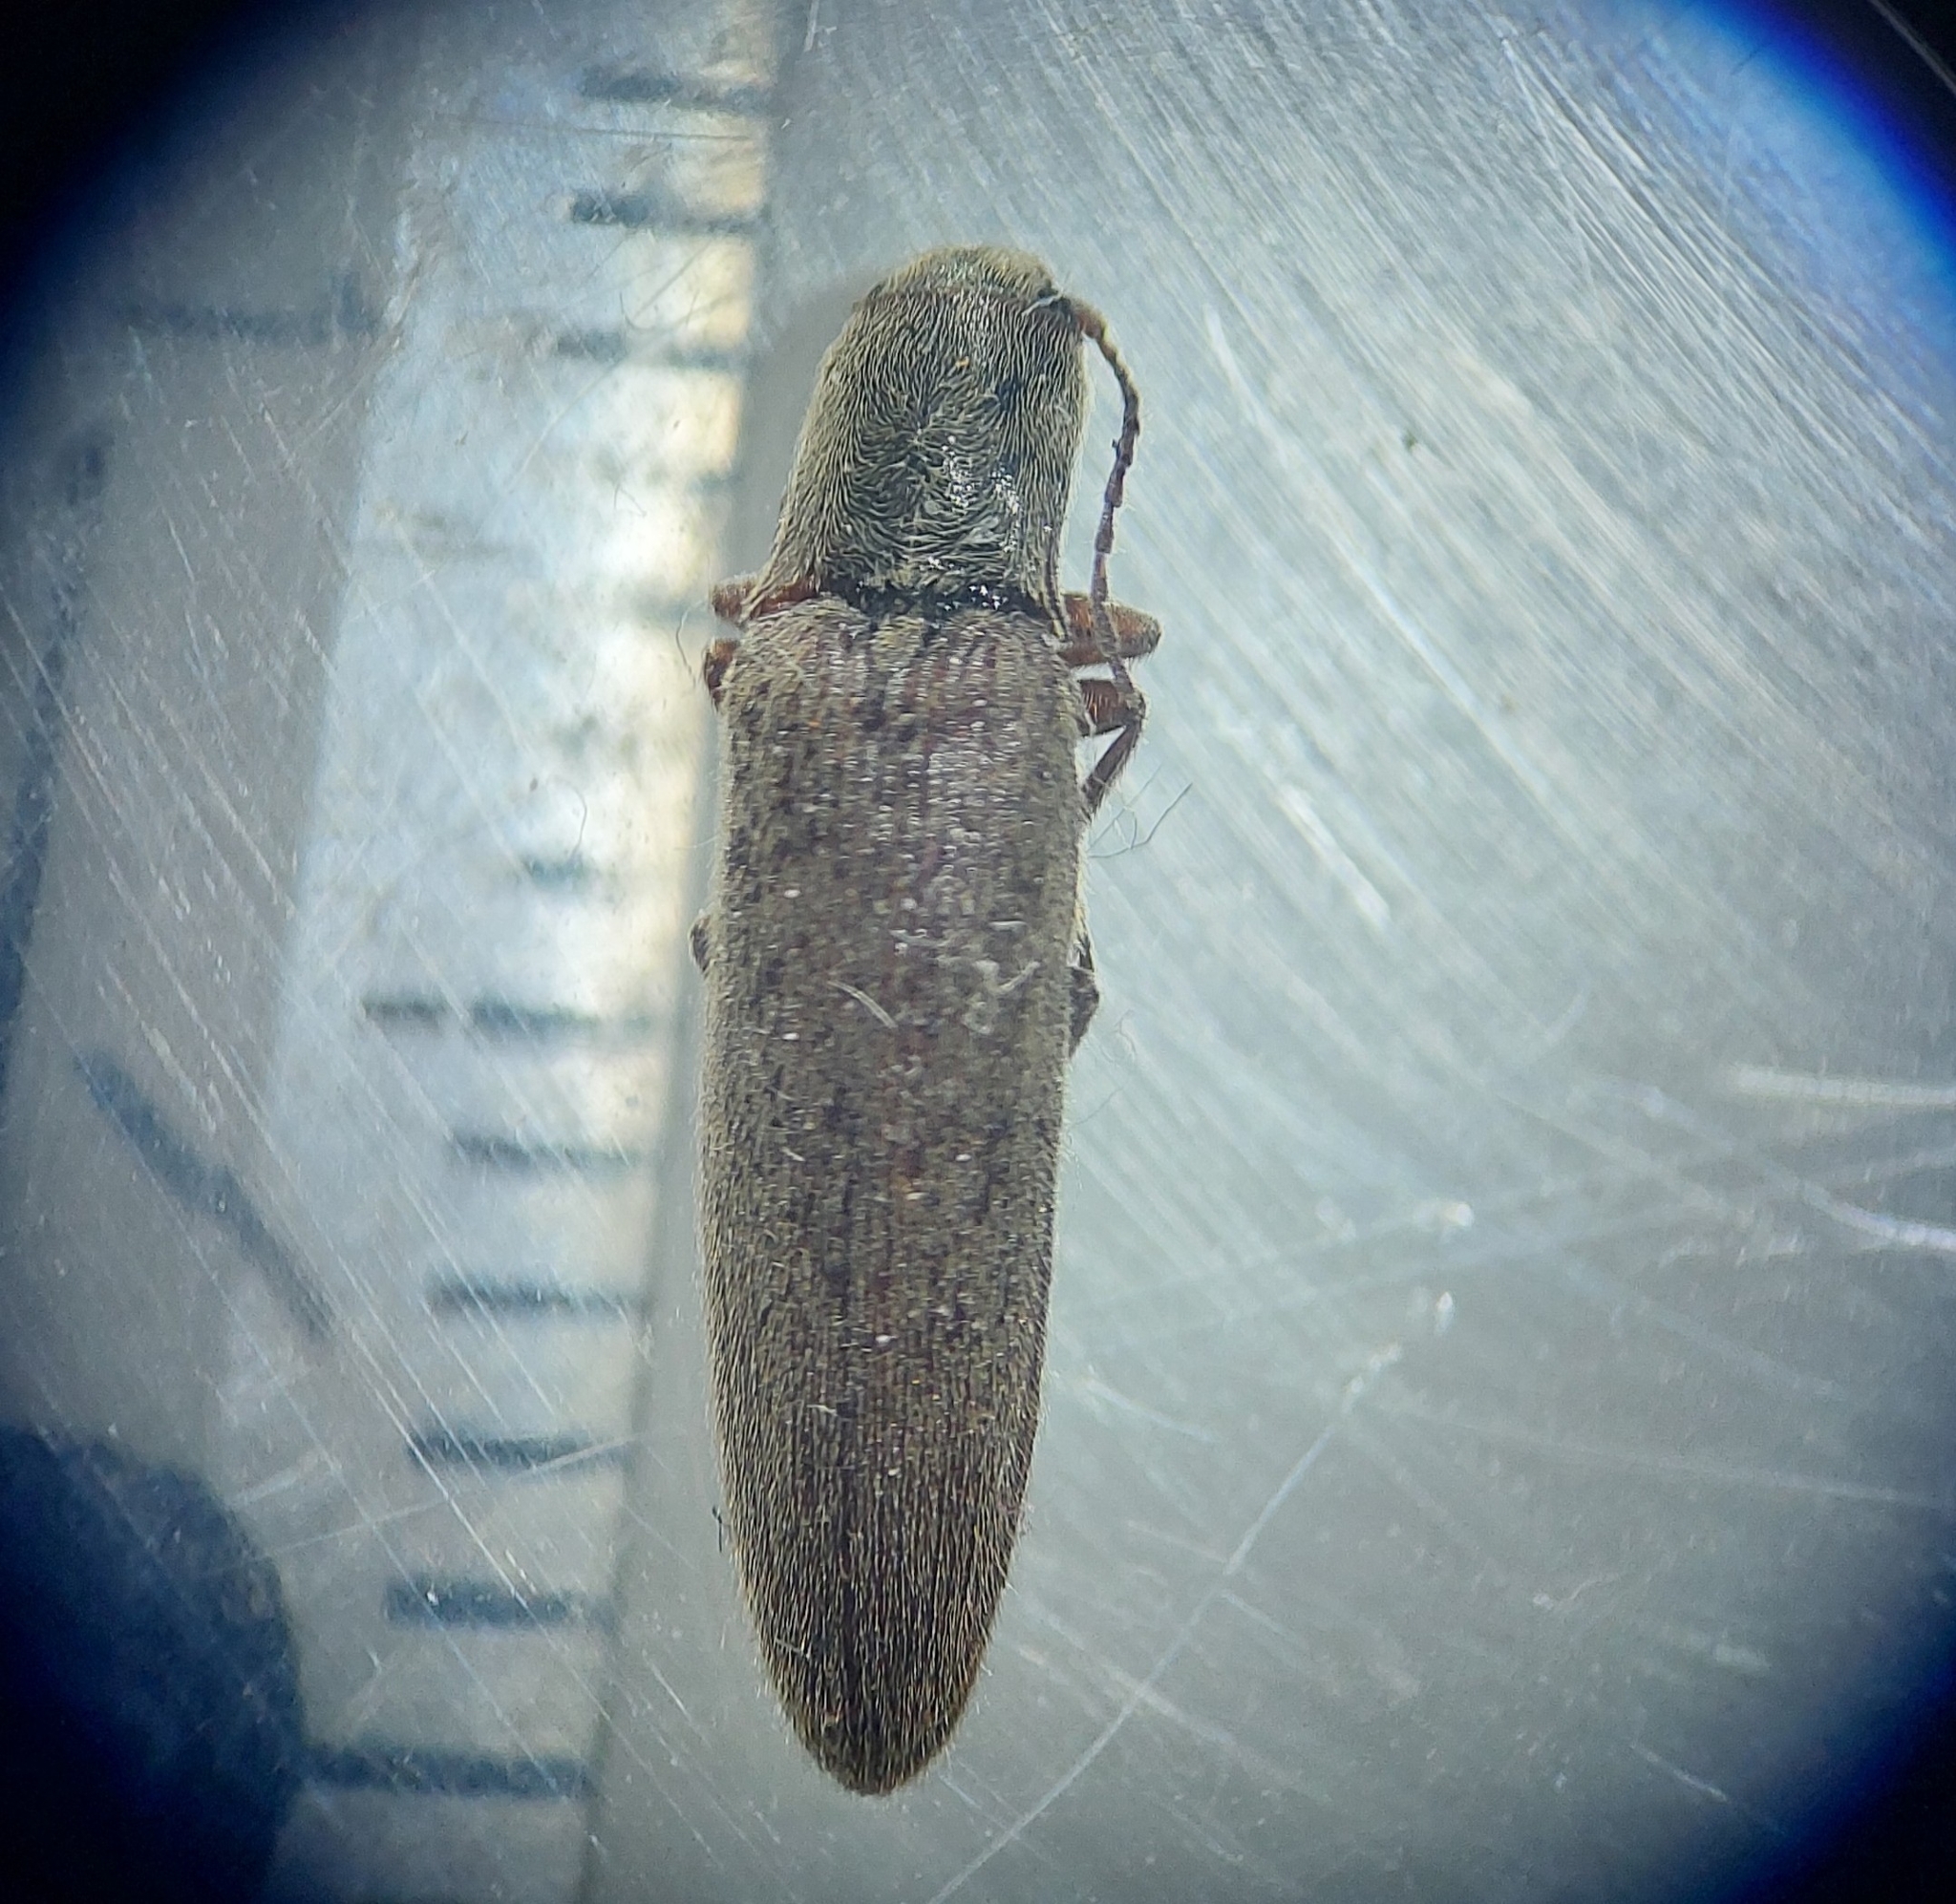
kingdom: Animalia
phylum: Arthropoda
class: Insecta
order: Coleoptera
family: Elateridae
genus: Synaptus
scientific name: Synaptus filiformis
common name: Hairy click beetle
